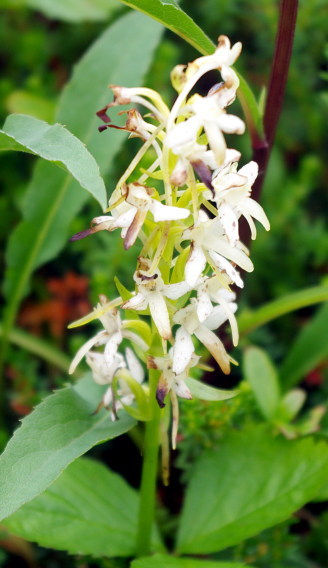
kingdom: Plantae
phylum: Tracheophyta
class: Liliopsida
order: Asparagales
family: Orchidaceae
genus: Platanthera
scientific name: Platanthera bifolia
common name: Lesser butterfly-orchid
